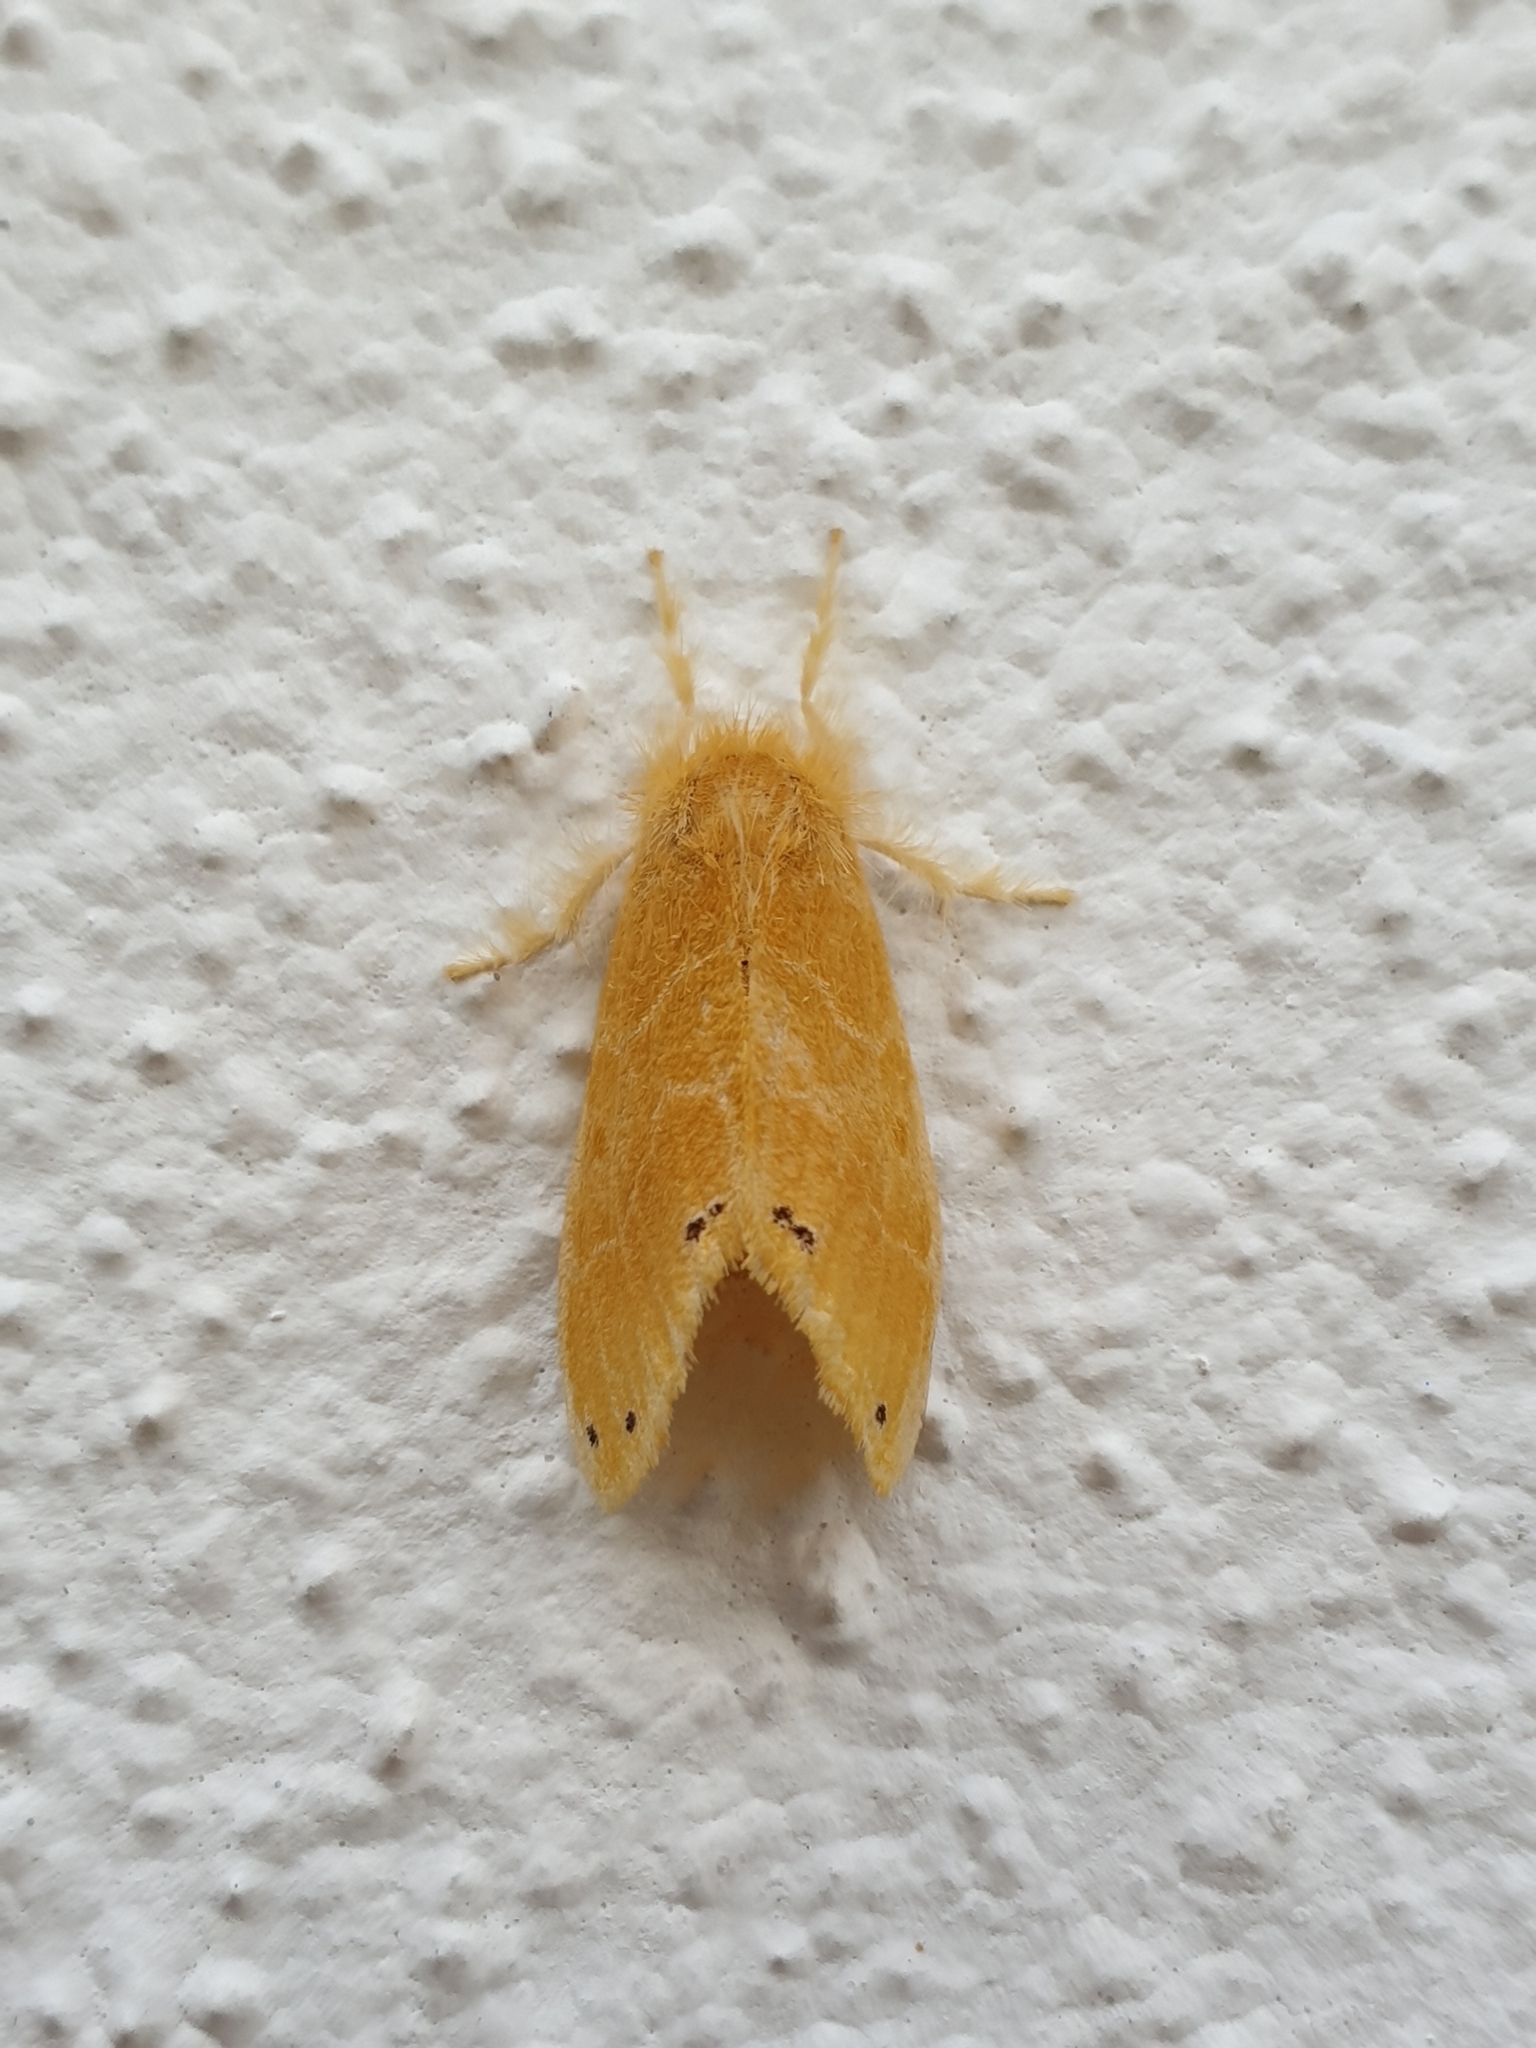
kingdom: Animalia
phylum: Arthropoda
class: Insecta
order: Lepidoptera
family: Erebidae
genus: Artaxa
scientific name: Artaxa guttata
